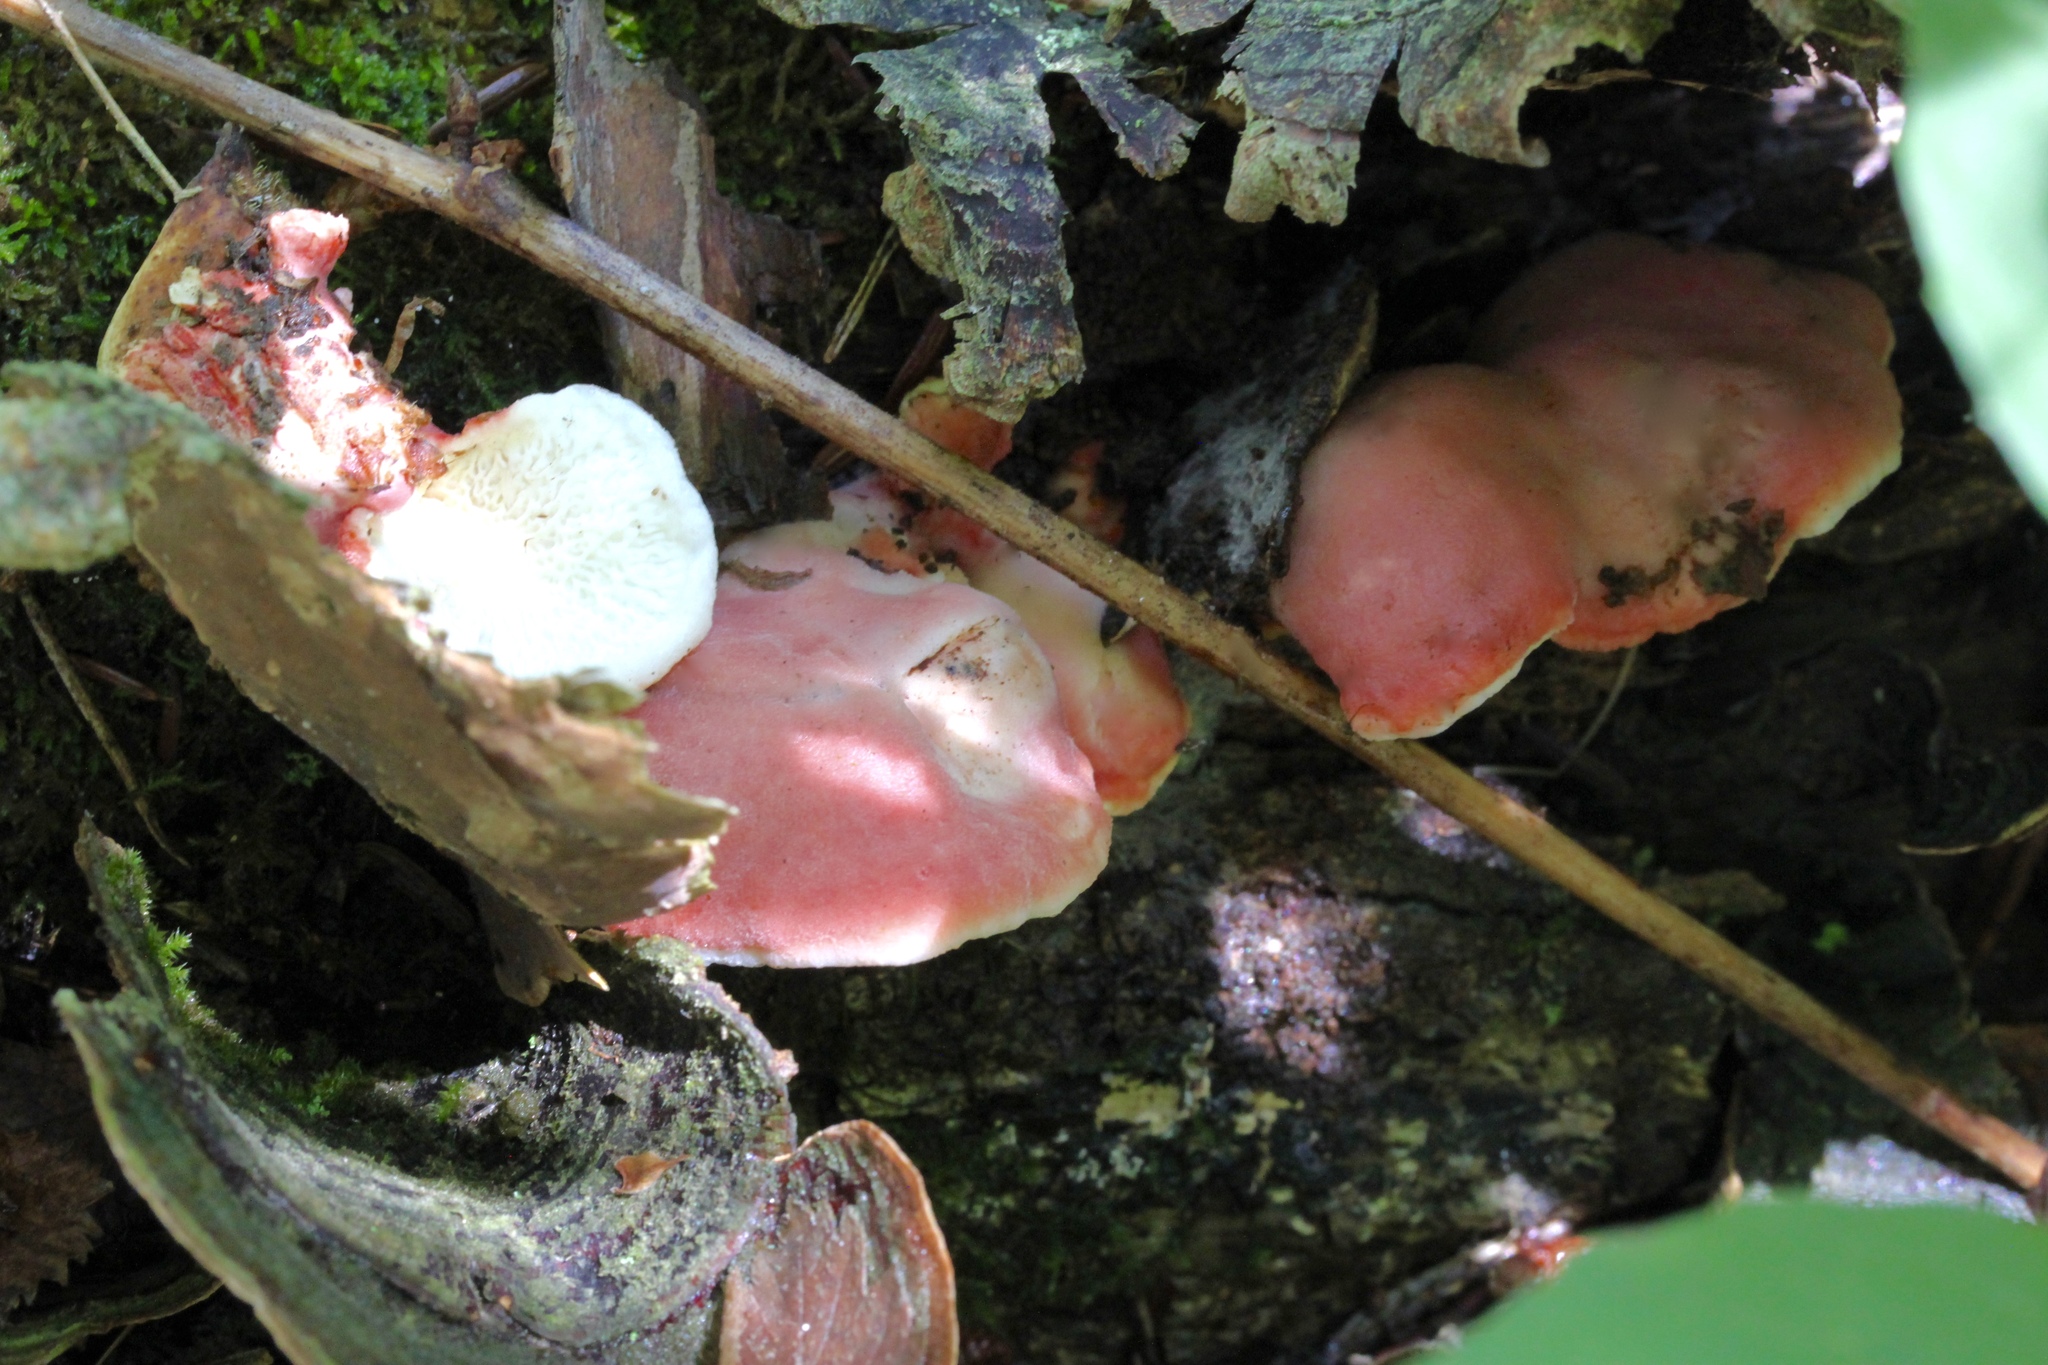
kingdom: Fungi
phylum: Basidiomycota
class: Agaricomycetes
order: Polyporales
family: Irpicaceae
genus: Byssomerulius
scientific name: Byssomerulius incarnatus
